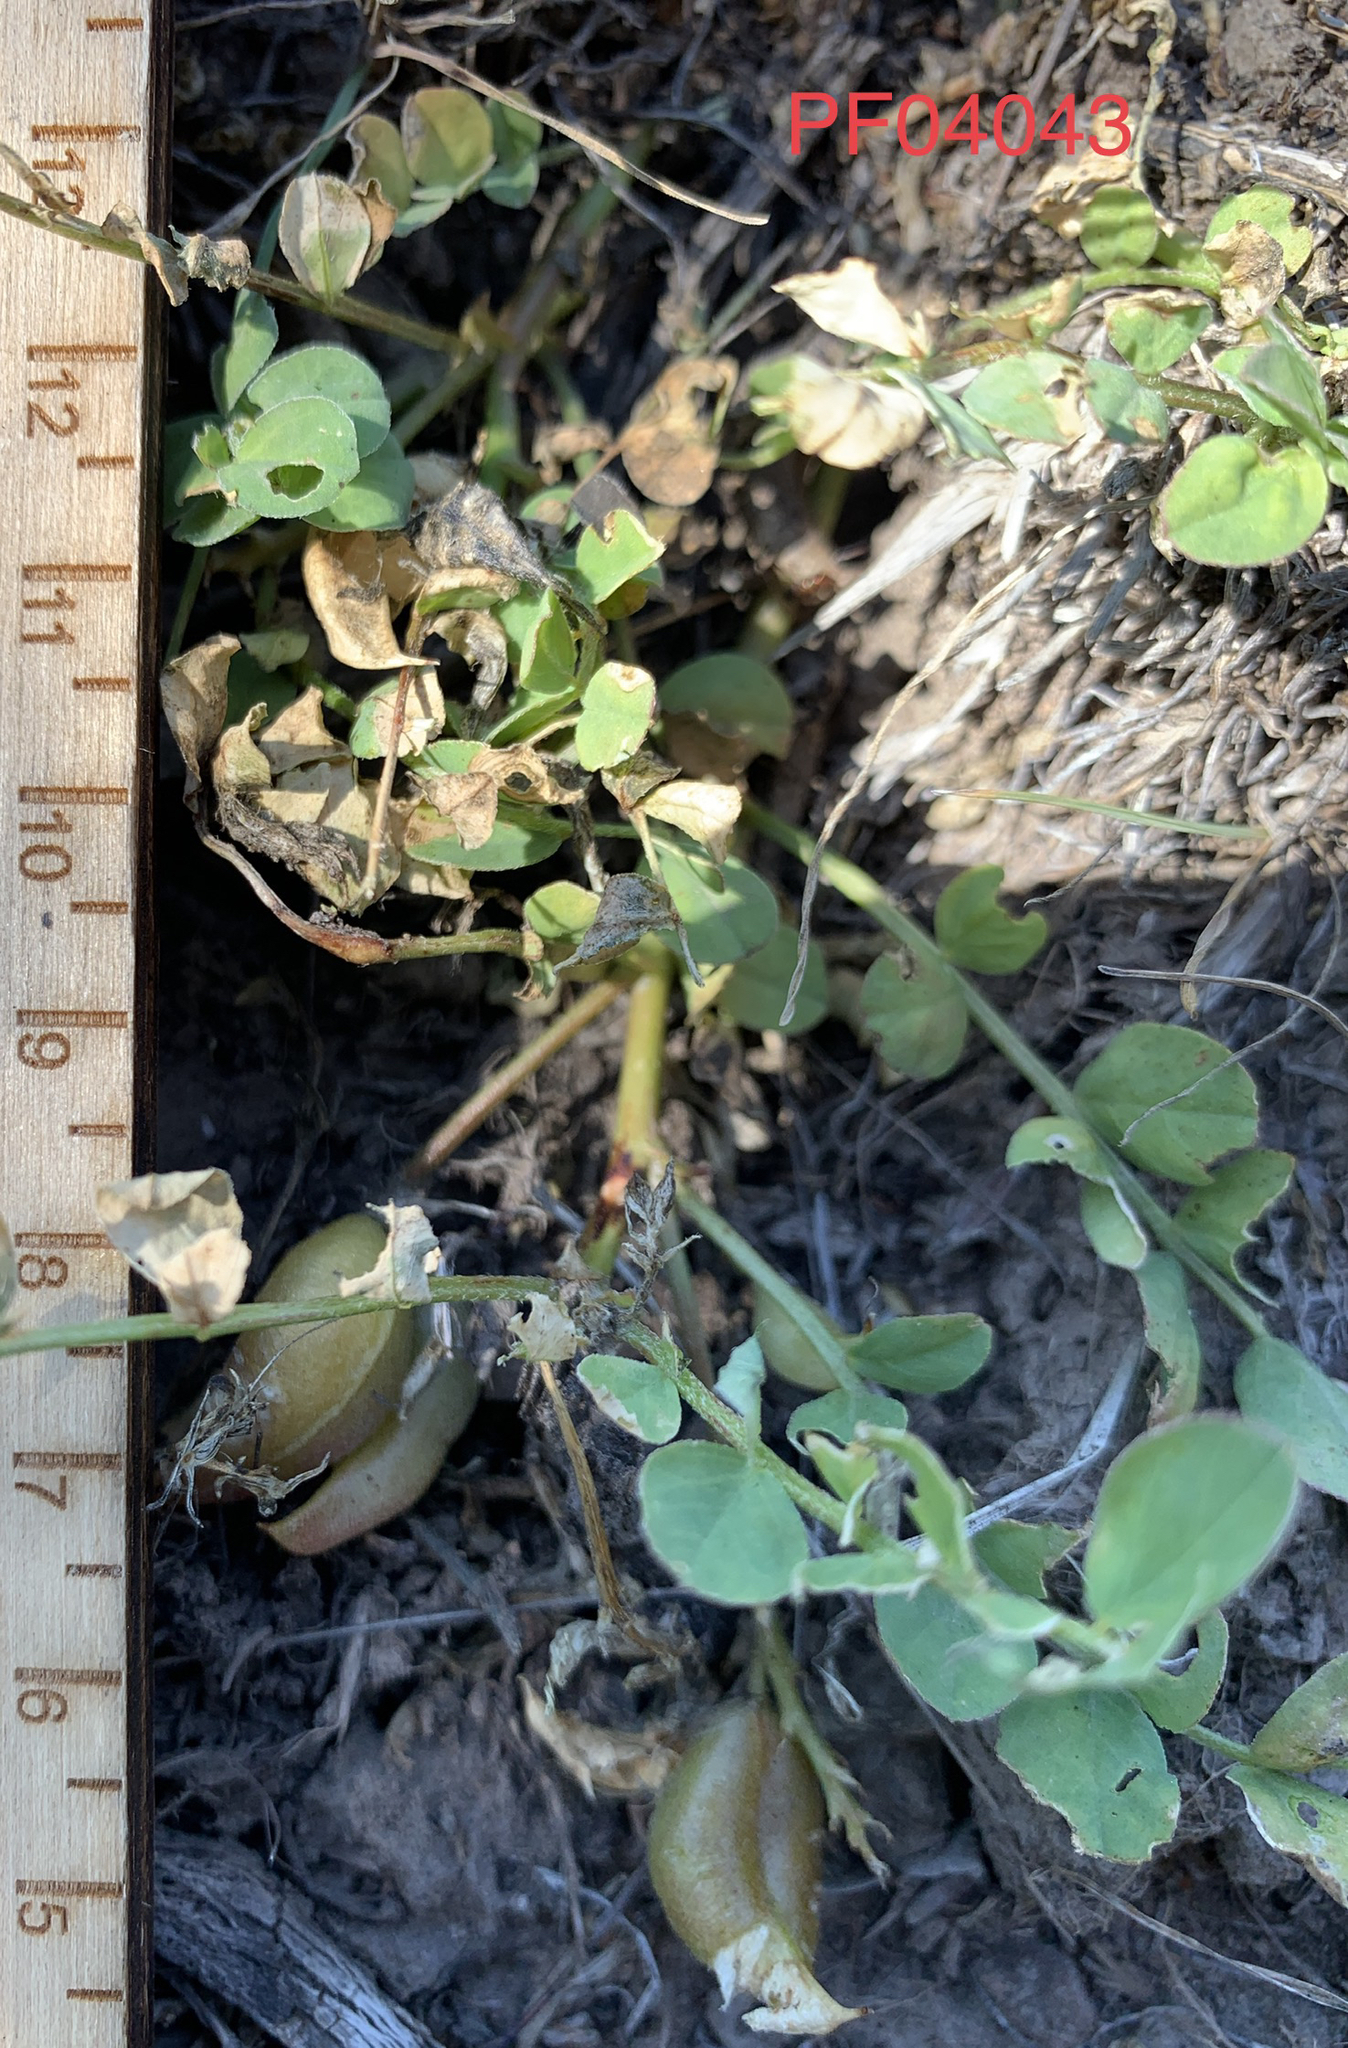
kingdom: Plantae
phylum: Tracheophyta
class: Magnoliopsida
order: Fabales
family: Fabaceae
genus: Astragalus
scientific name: Astragalus lentiginosus
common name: Freckled milkvetch
